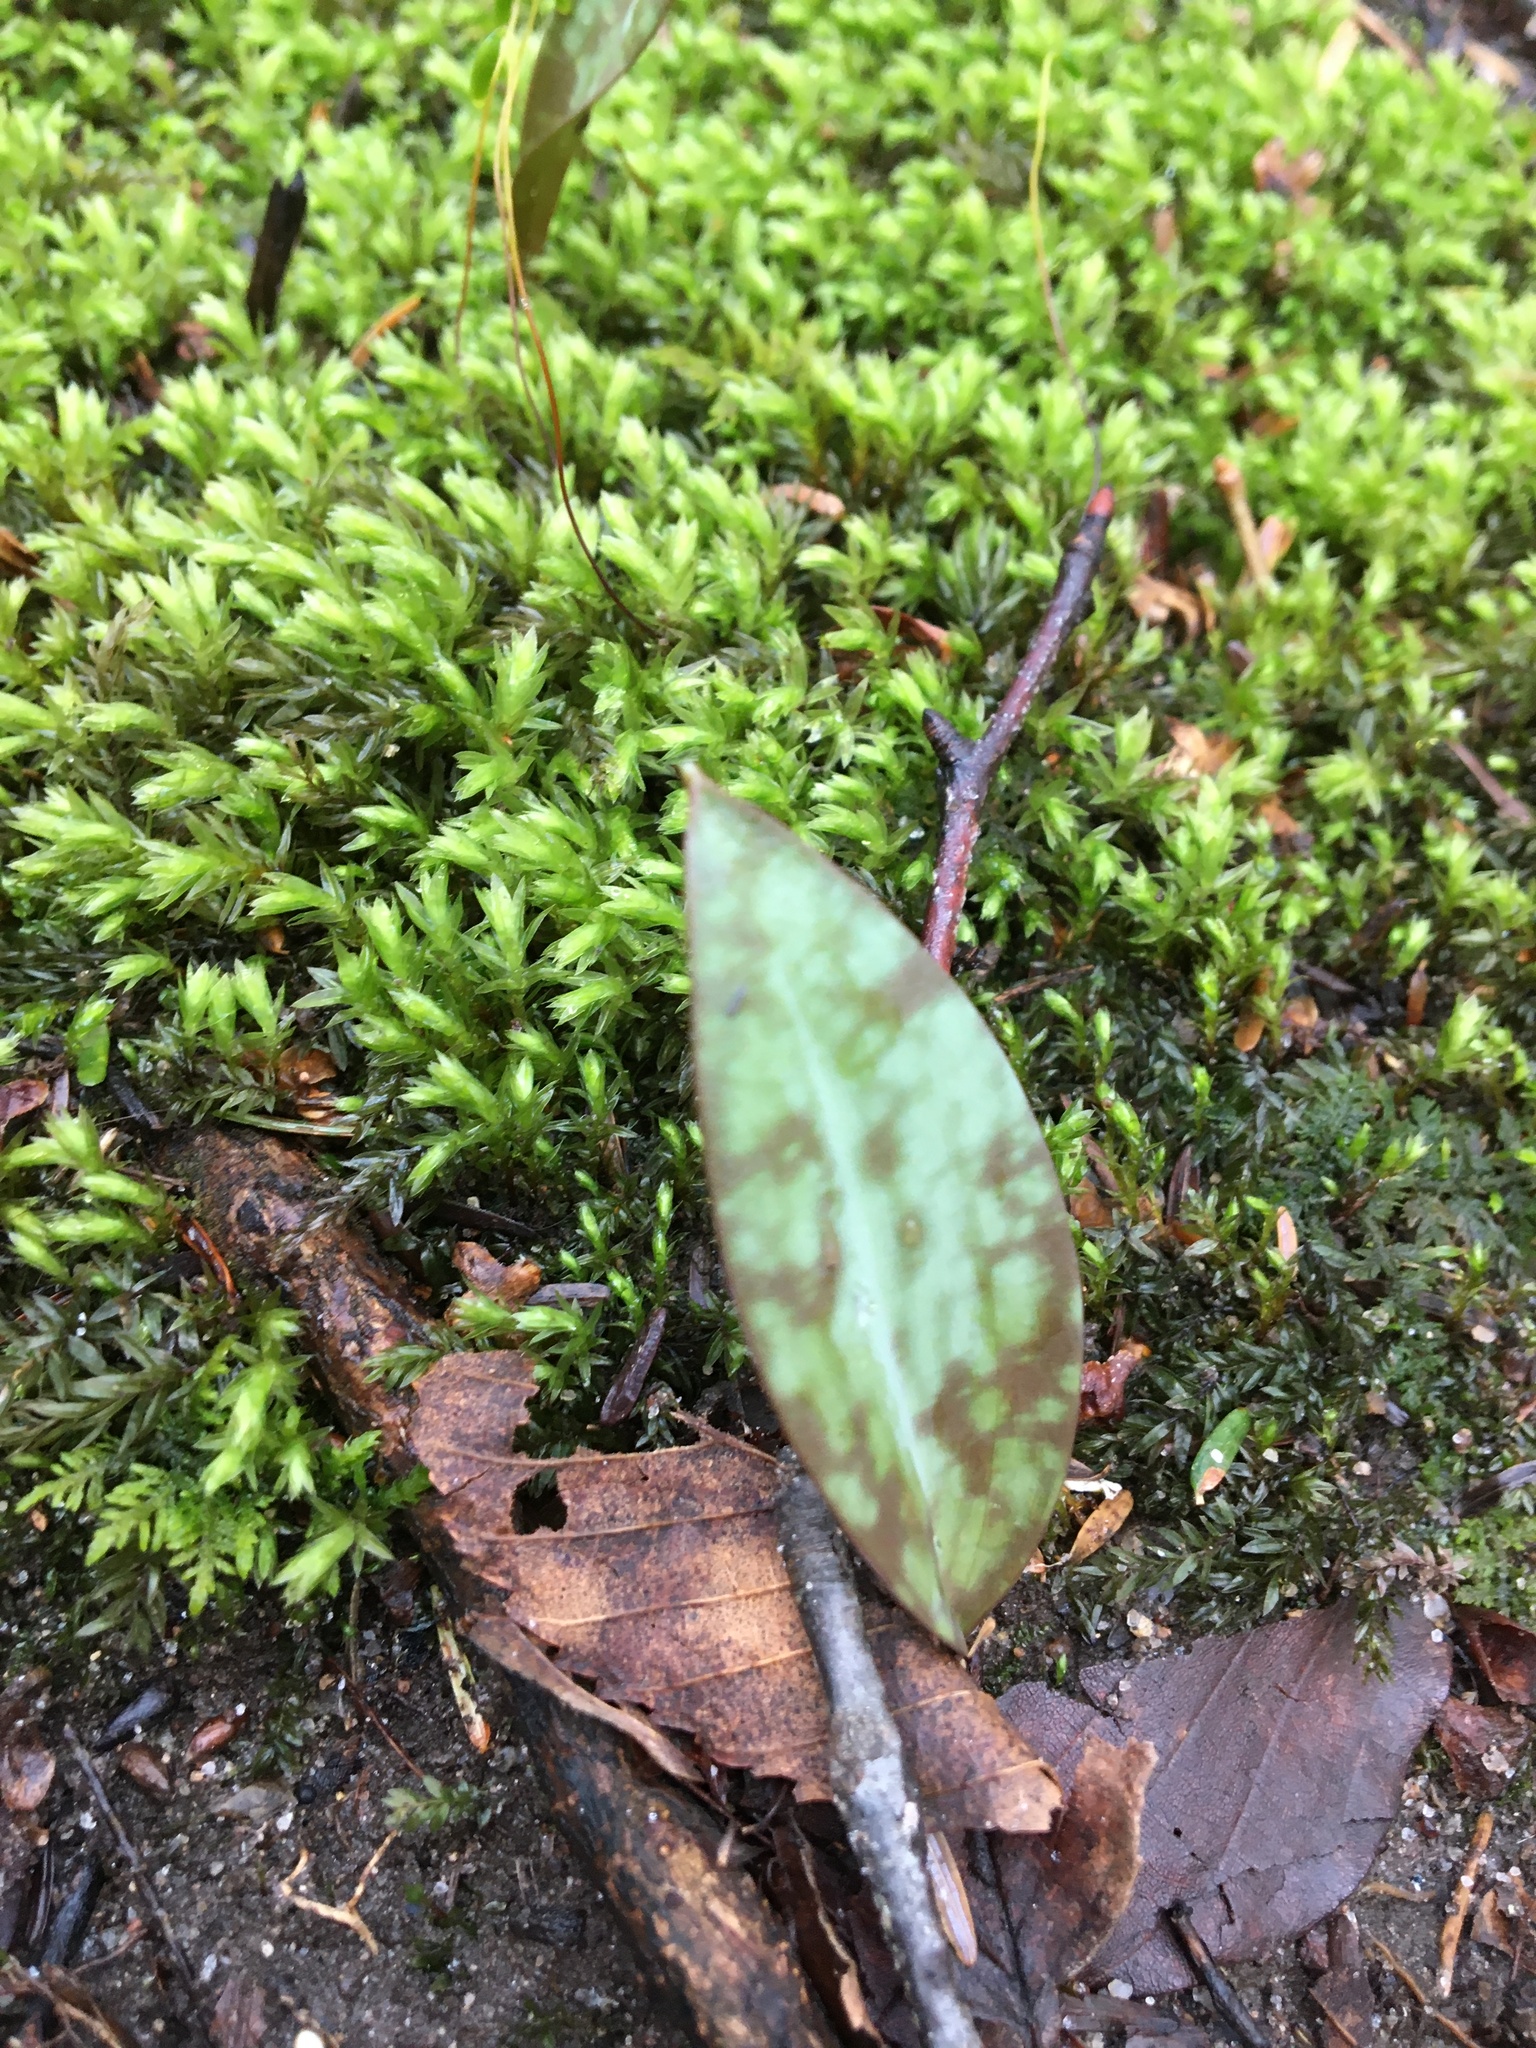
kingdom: Plantae
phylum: Tracheophyta
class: Liliopsida
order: Liliales
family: Liliaceae
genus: Erythronium
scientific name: Erythronium americanum
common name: Yellow adder's-tongue
